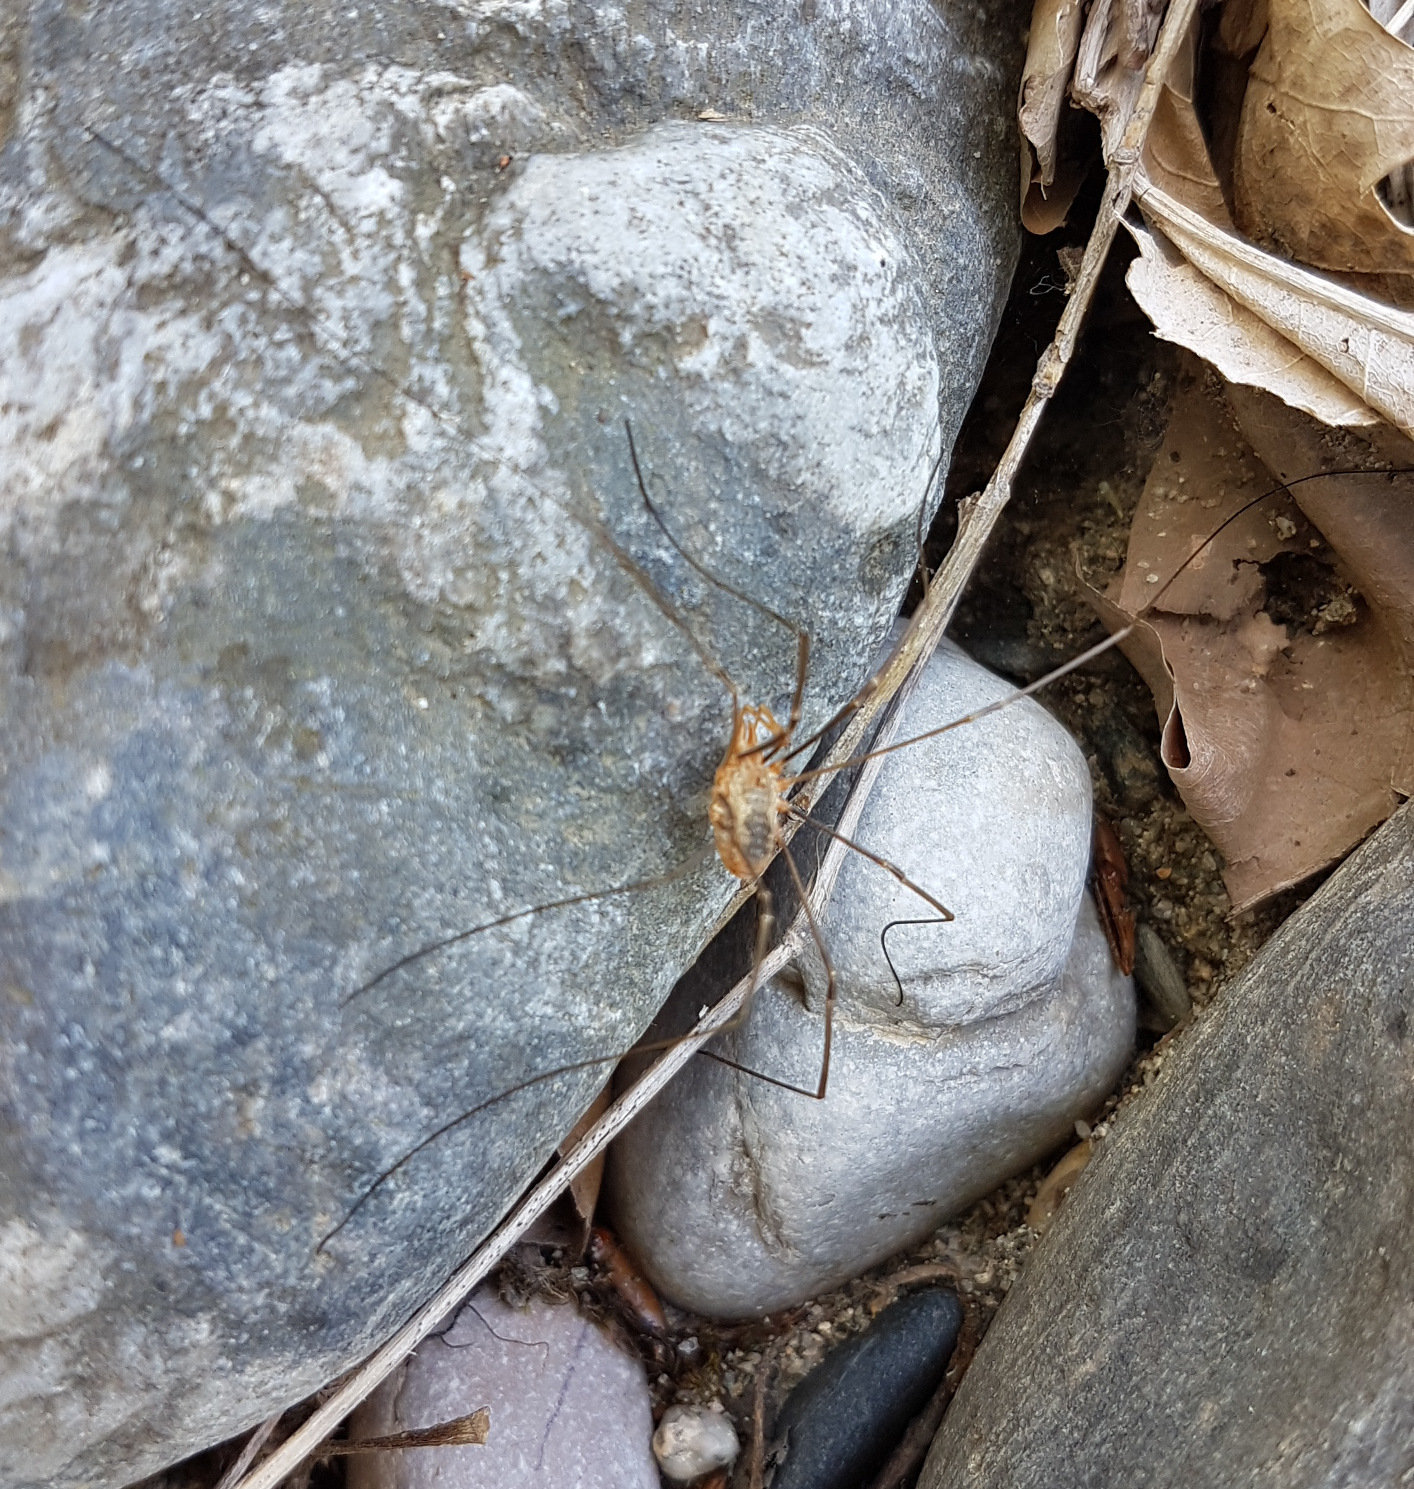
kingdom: Animalia
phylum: Arthropoda
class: Arachnida
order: Opiliones
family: Phalangiidae
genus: Phalangium
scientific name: Phalangium opilio
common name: Daddy longleg
